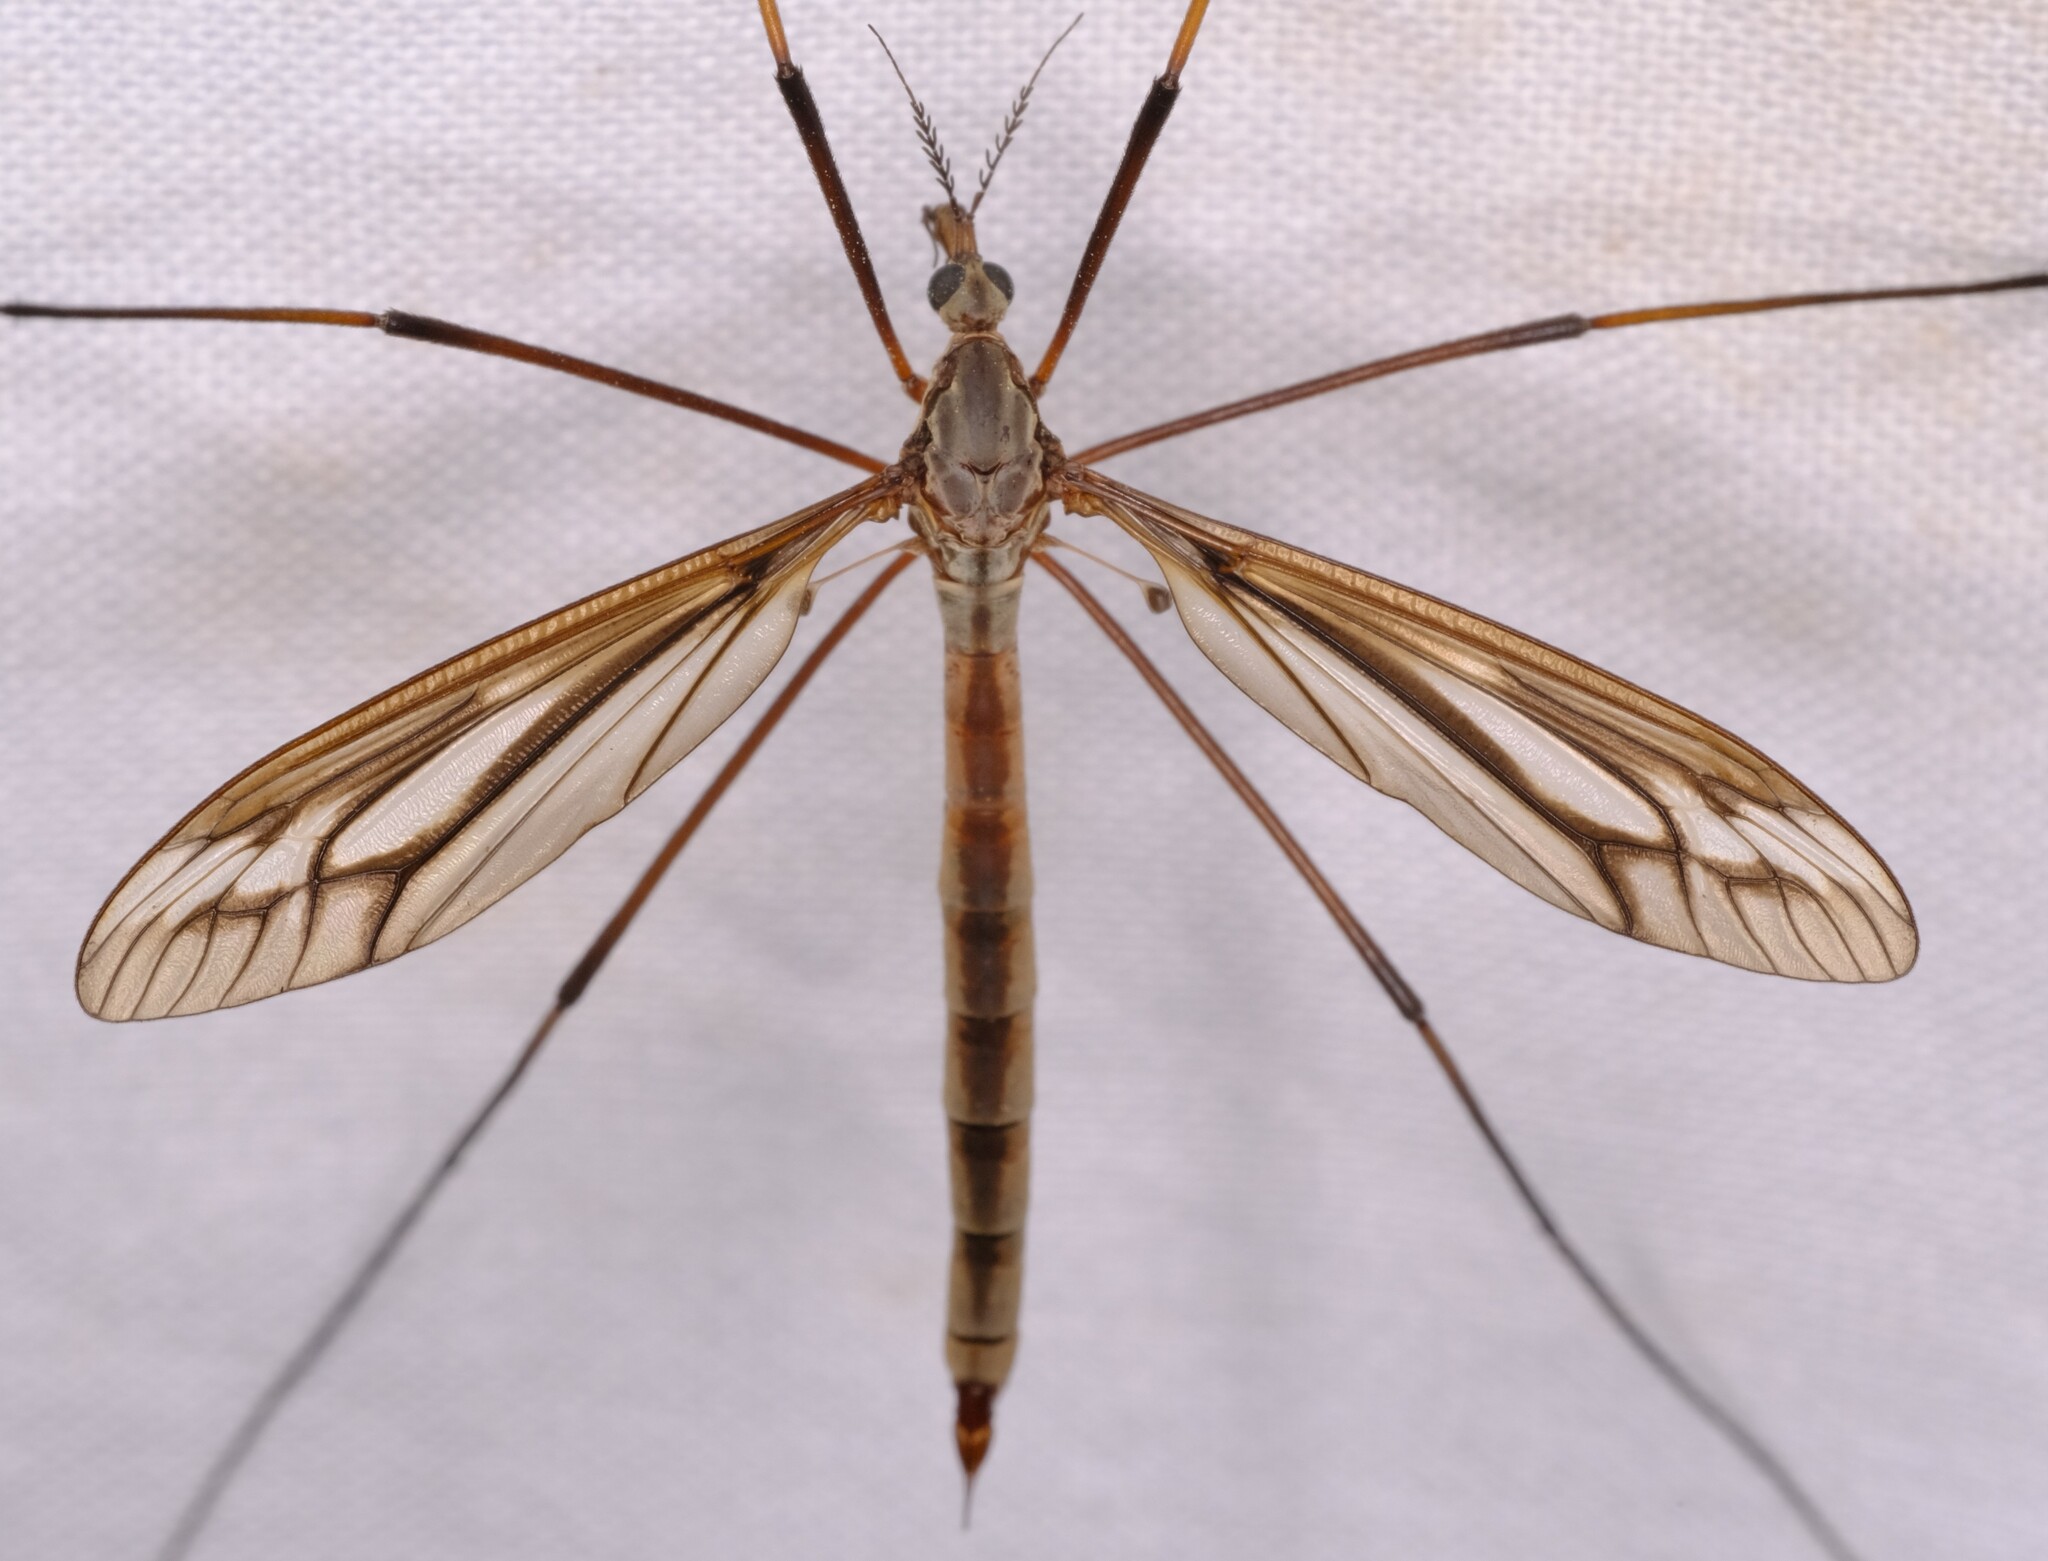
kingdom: Animalia
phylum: Arthropoda
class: Insecta
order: Diptera
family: Tipulidae
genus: Ptilogyna
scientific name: Ptilogyna gracilis
